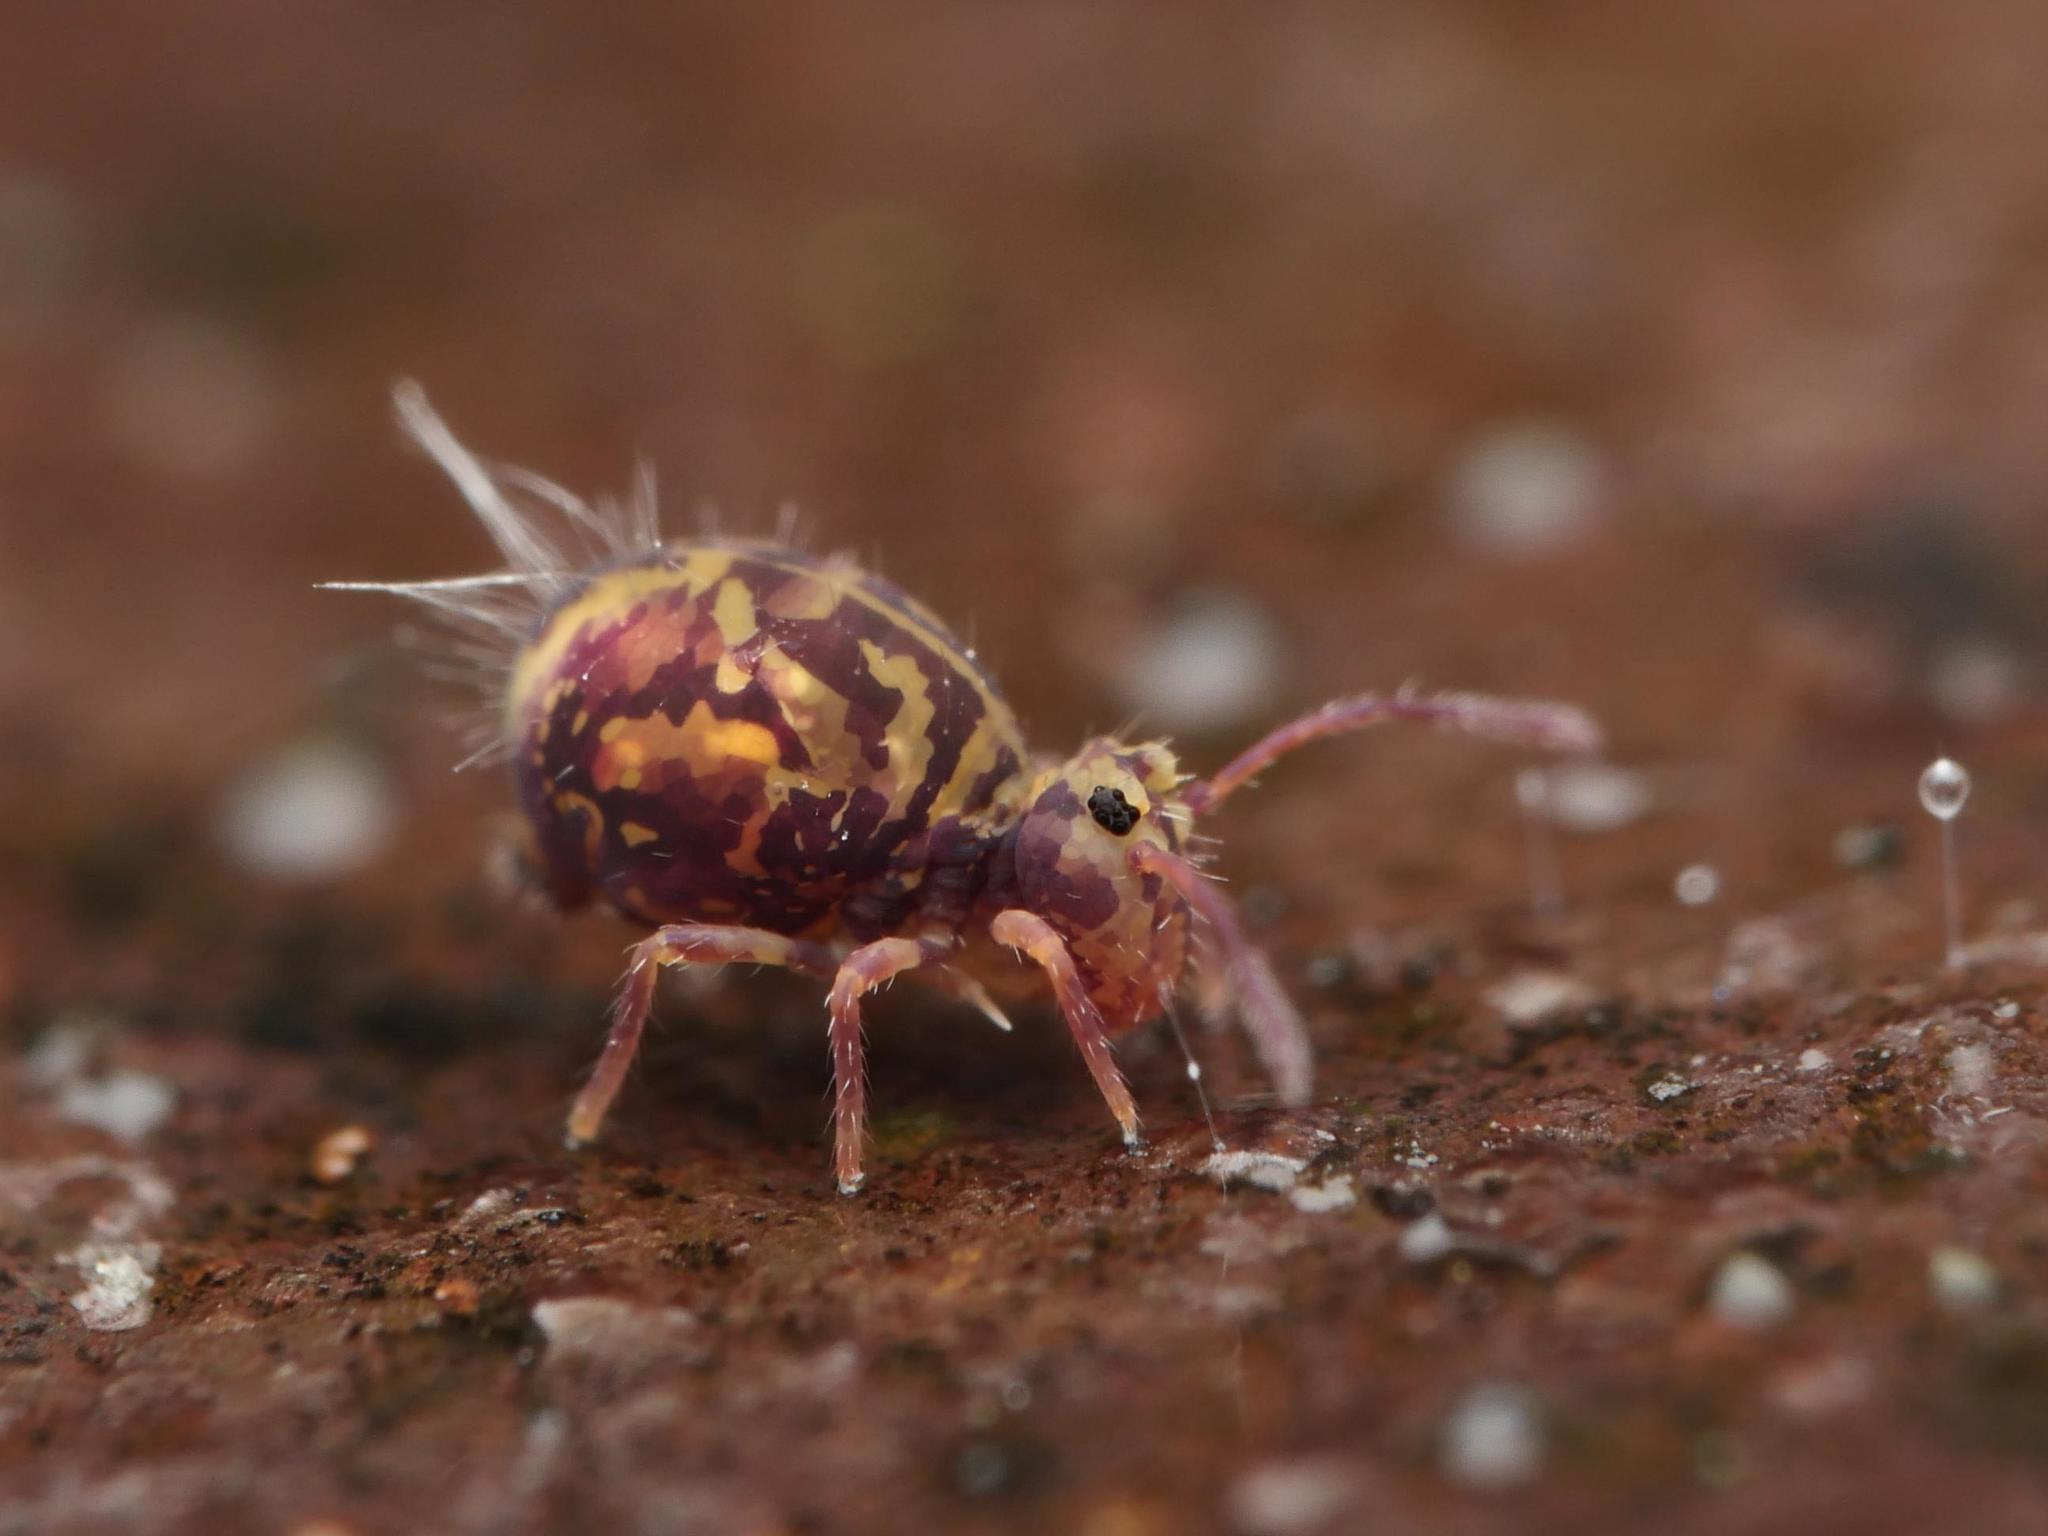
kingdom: Animalia
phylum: Arthropoda
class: Collembola
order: Symphypleona
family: Dicyrtomidae
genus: Dicyrtomina
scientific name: Dicyrtomina ornata
